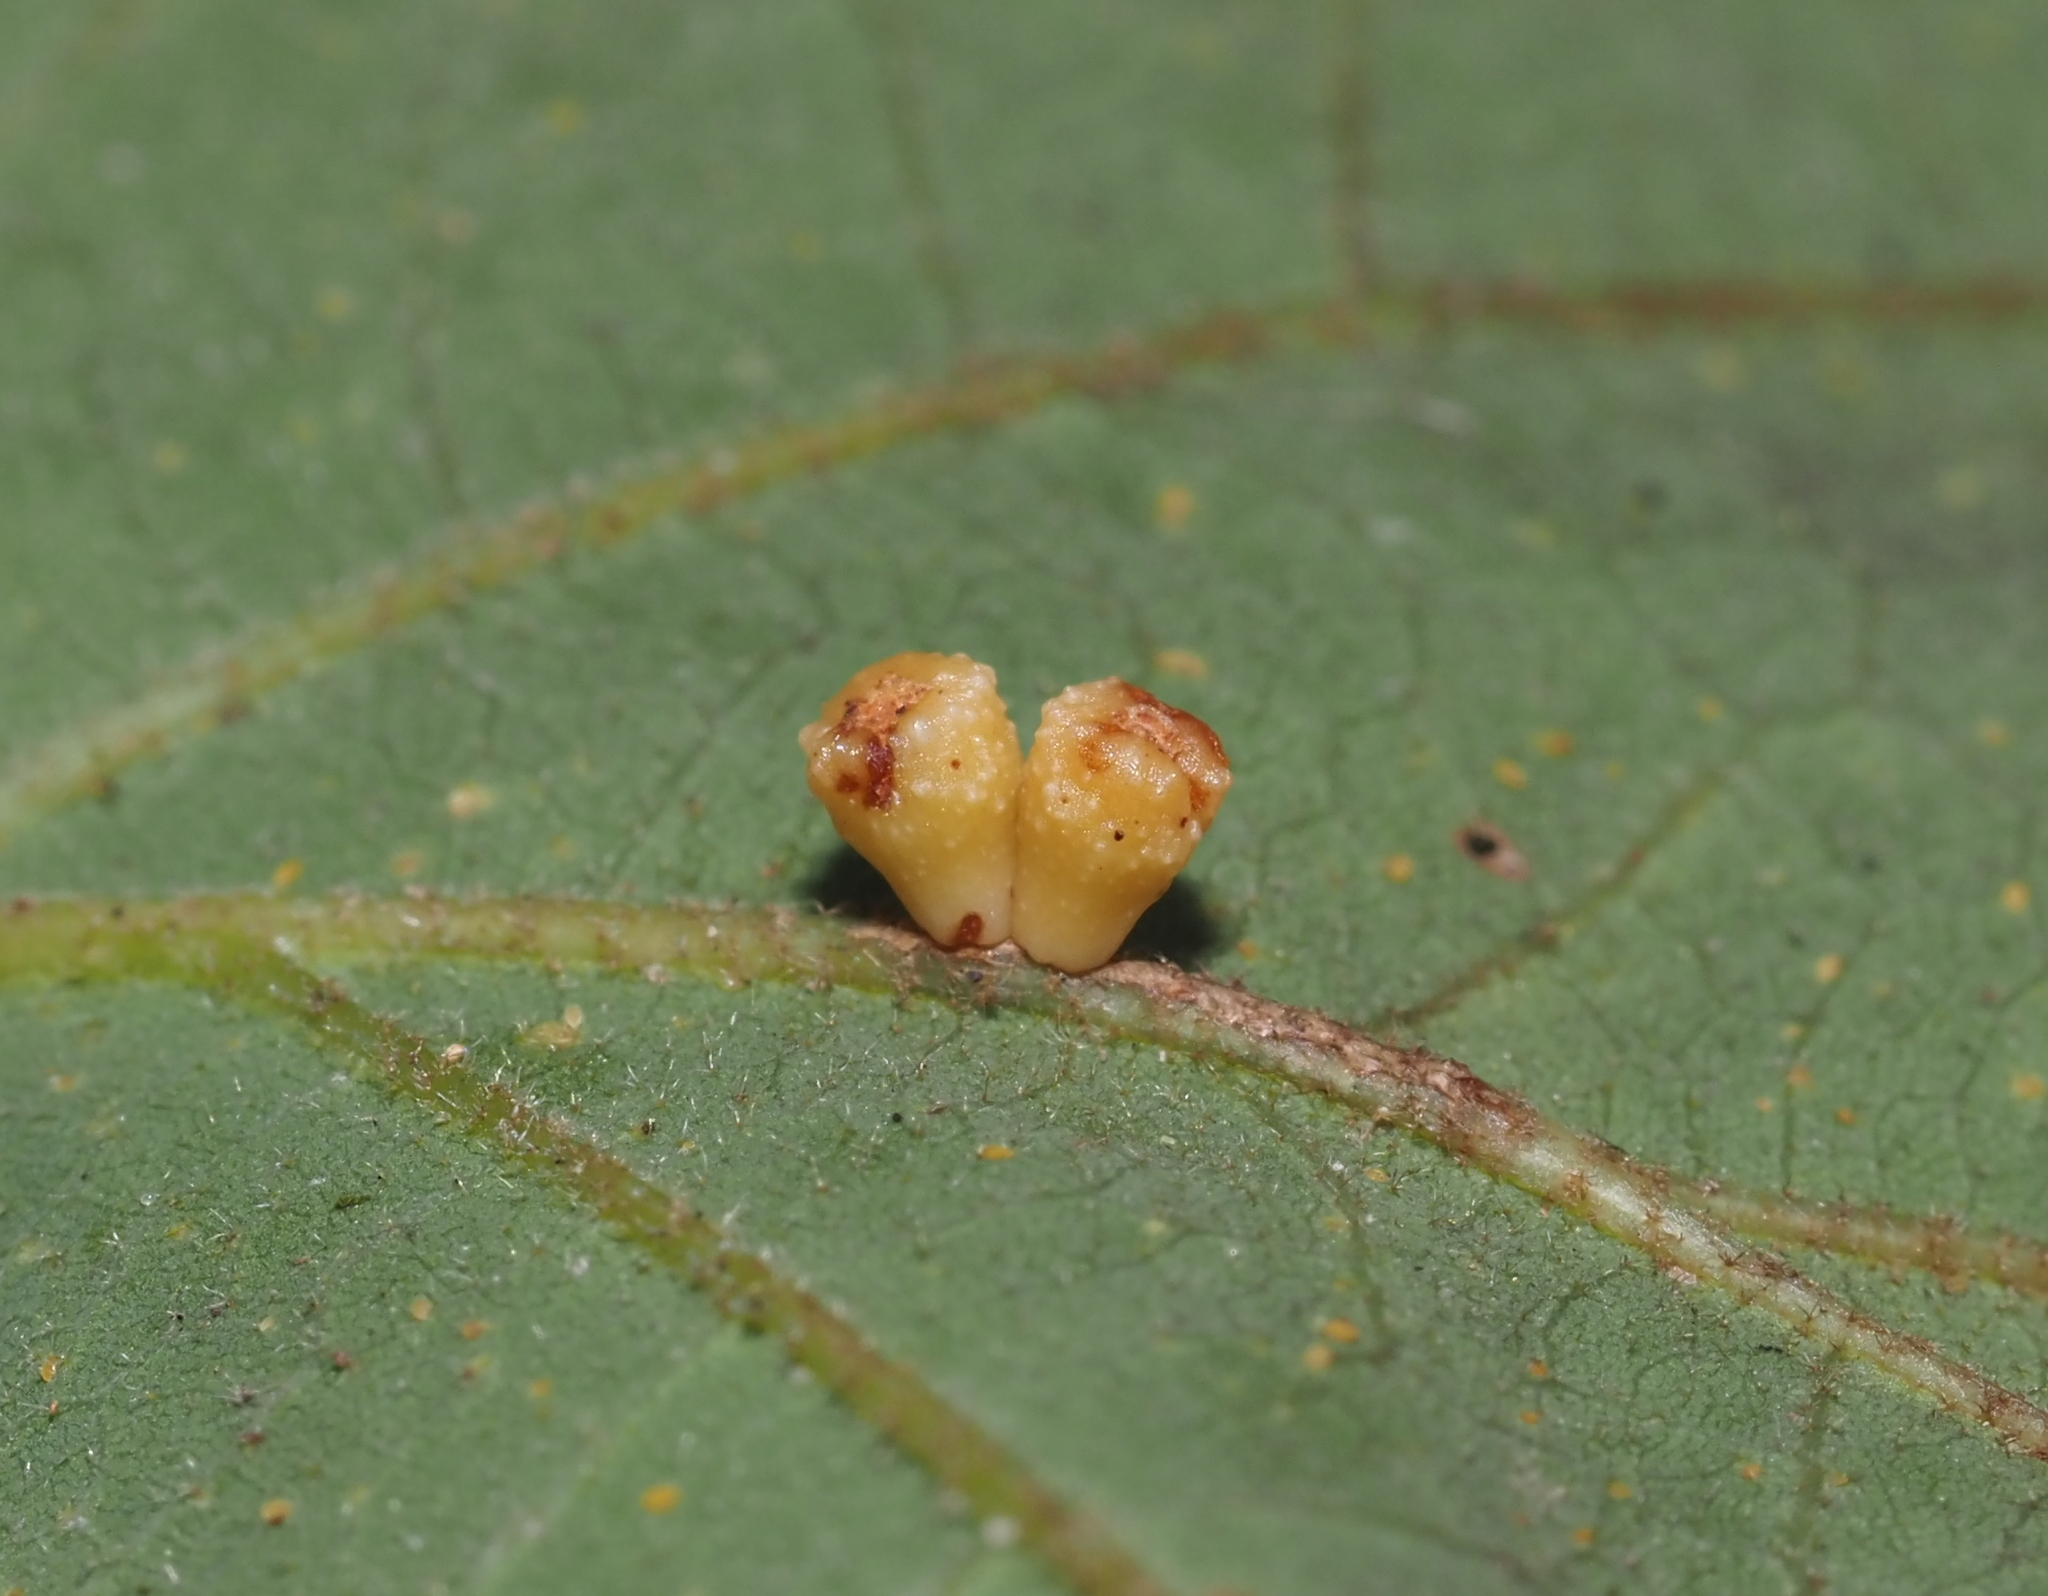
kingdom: Animalia
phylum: Arthropoda
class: Insecta
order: Hymenoptera
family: Cynipidae
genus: Andricus
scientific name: Andricus
